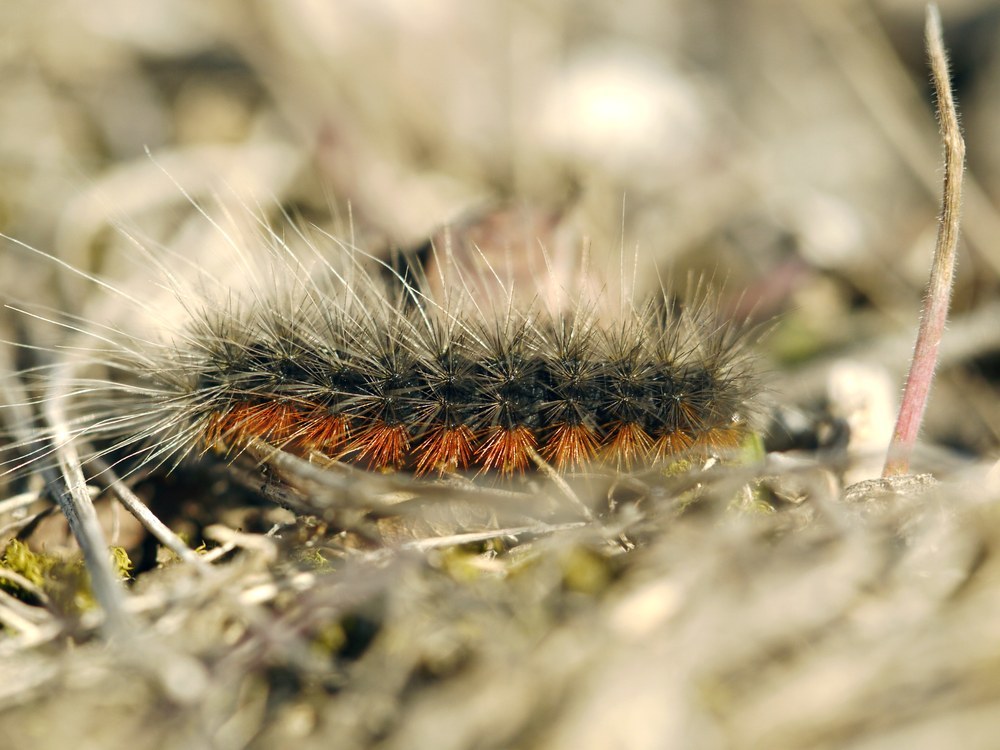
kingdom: Animalia
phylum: Arthropoda
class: Insecta
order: Lepidoptera
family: Erebidae
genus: Eucharia
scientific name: Eucharia festiva
